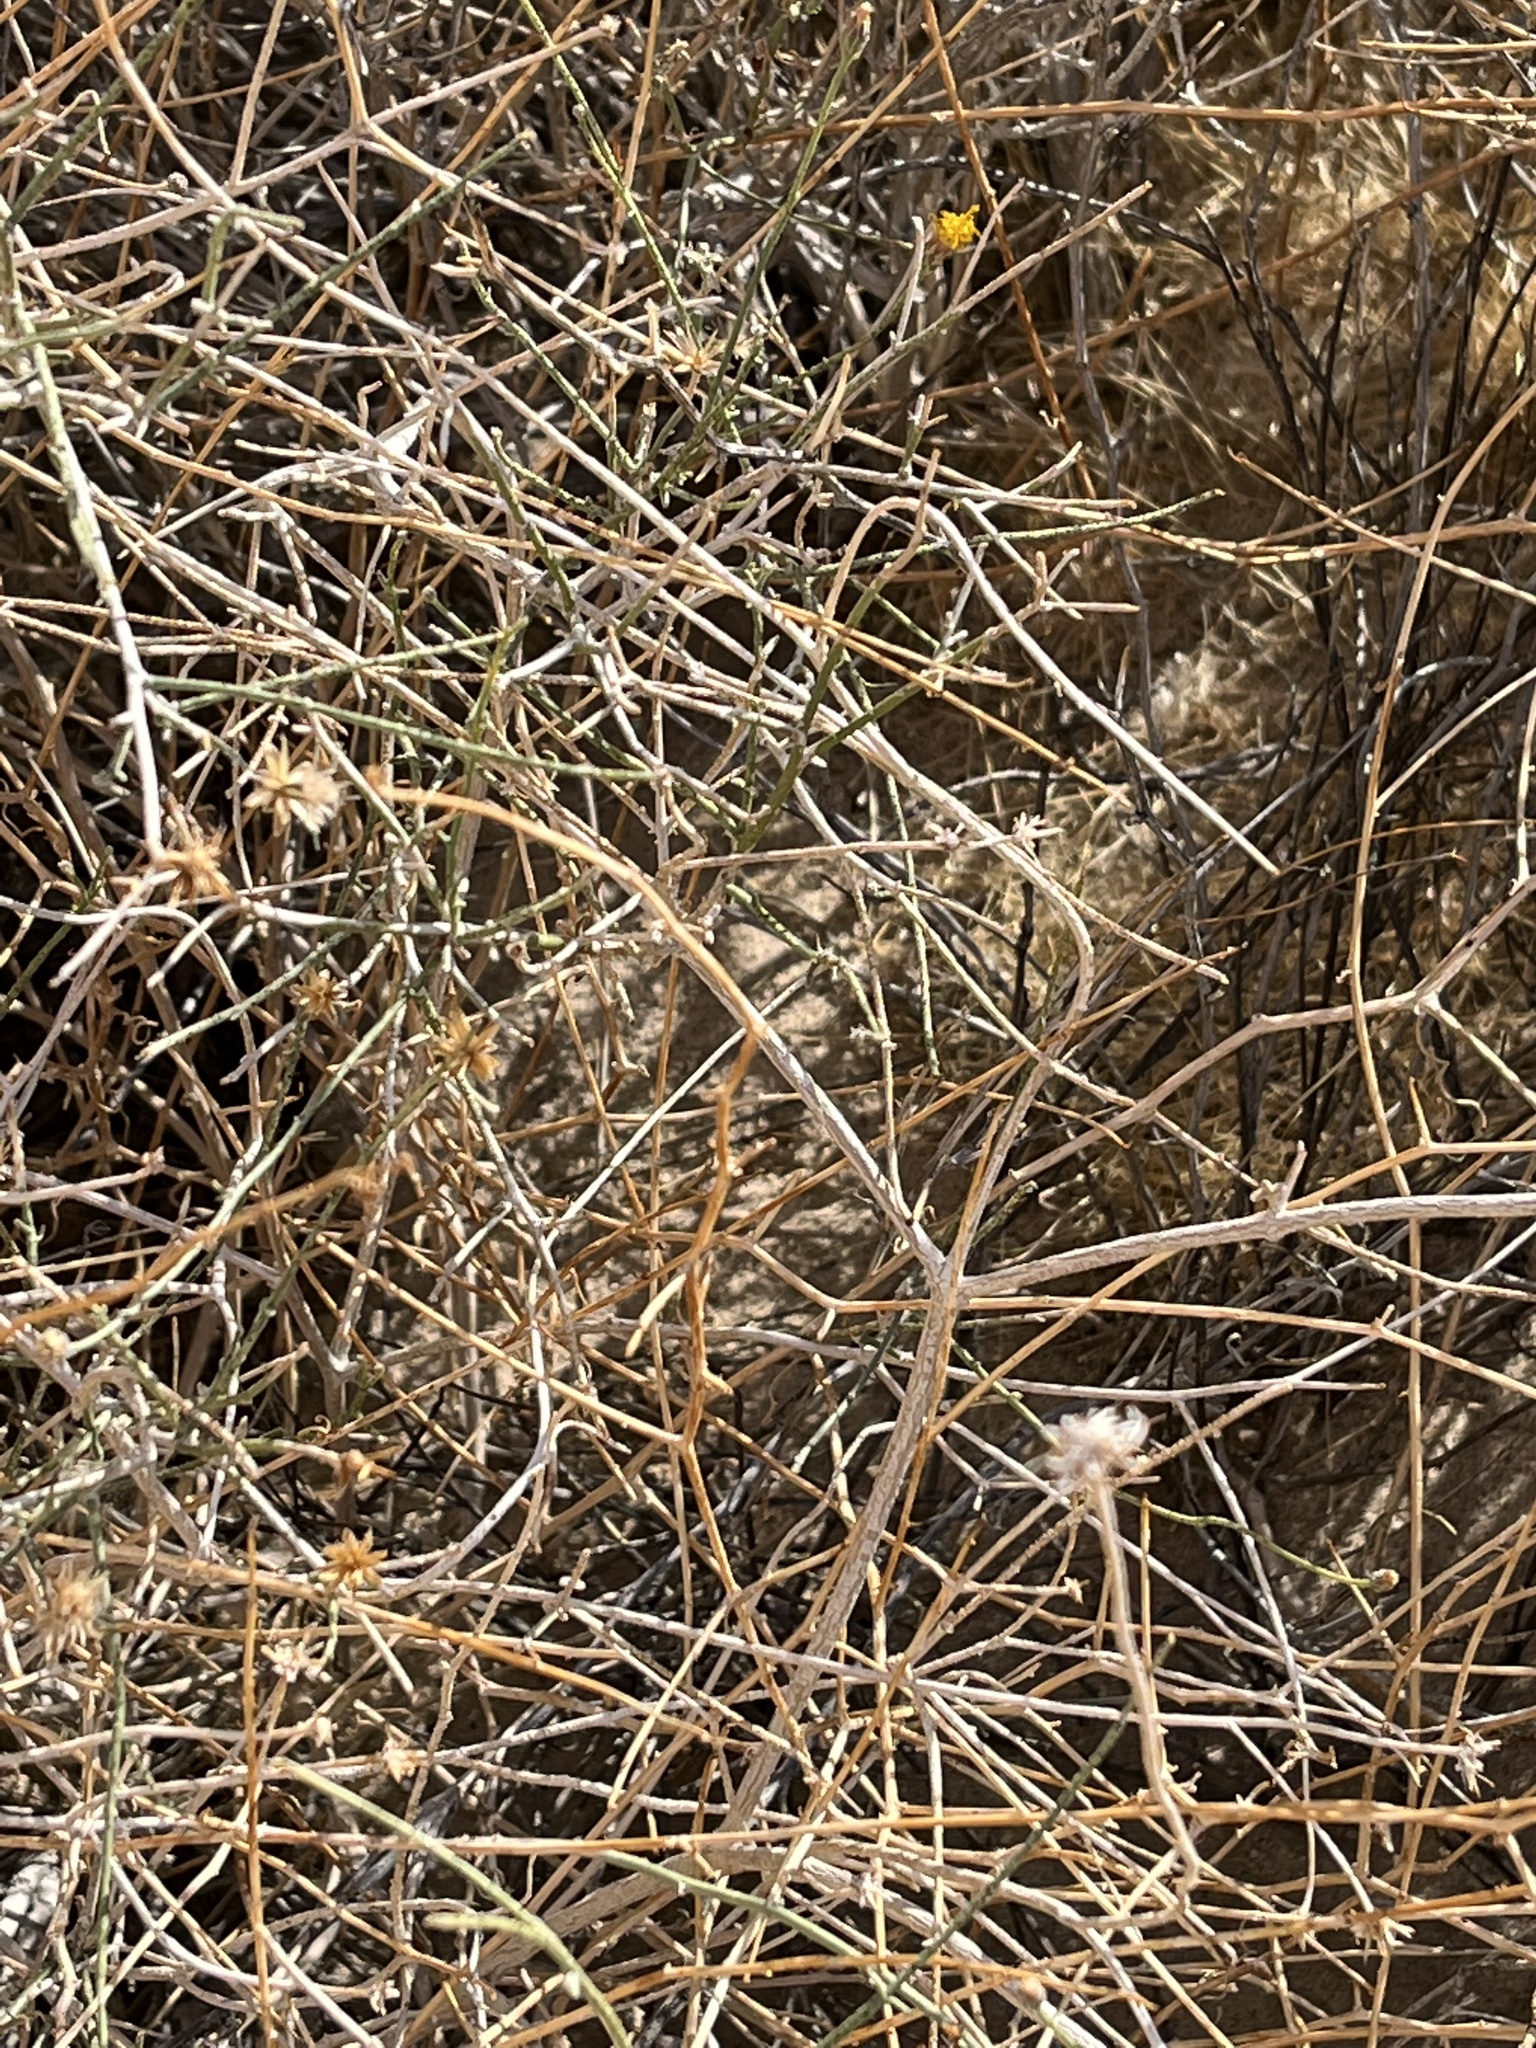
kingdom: Plantae
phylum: Tracheophyta
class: Magnoliopsida
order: Asterales
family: Asteraceae
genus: Bebbia
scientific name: Bebbia juncea
